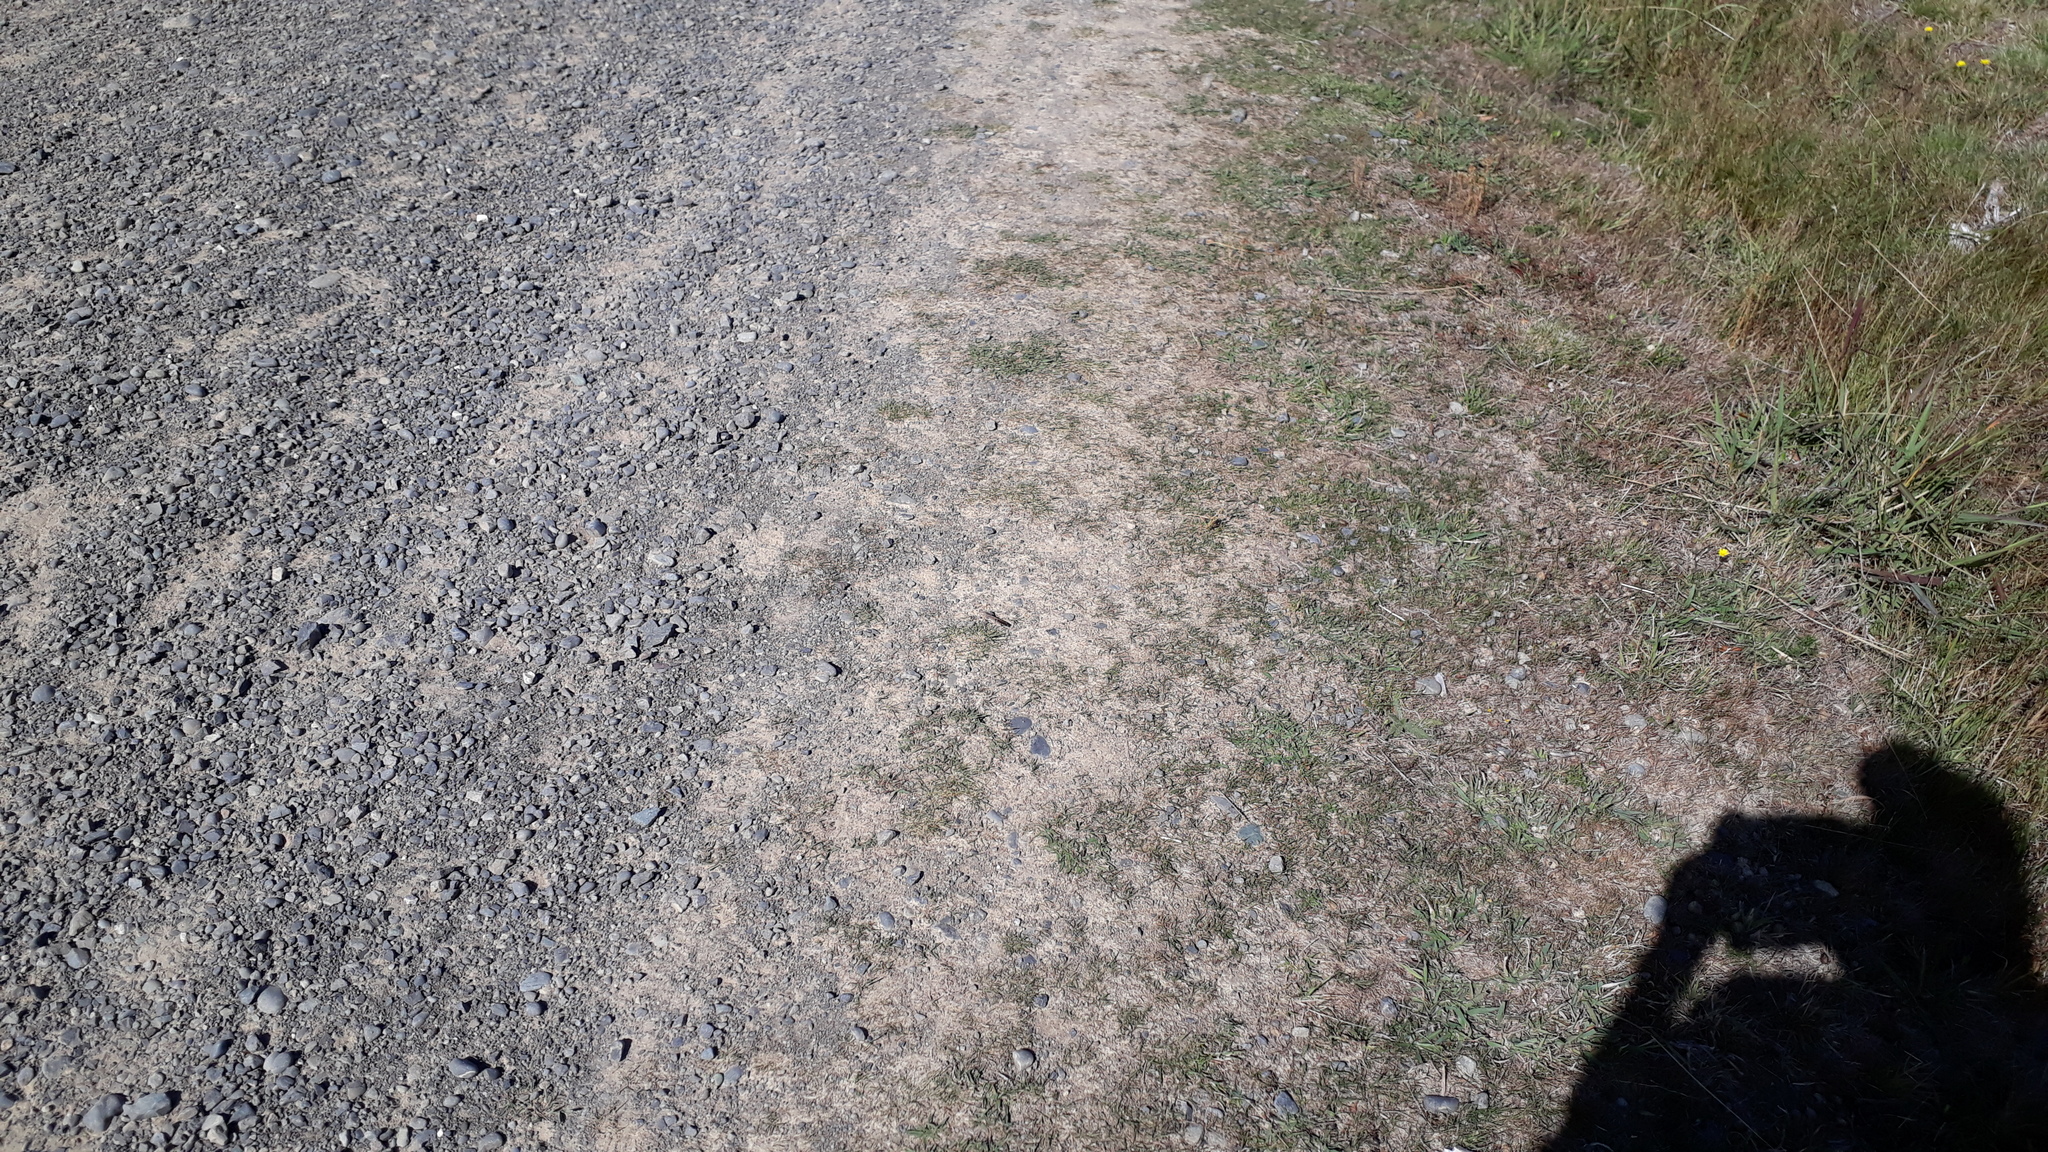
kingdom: Animalia
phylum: Arthropoda
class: Insecta
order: Orthoptera
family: Acrididae
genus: Locusta
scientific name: Locusta migratoria
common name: Migratory locust
